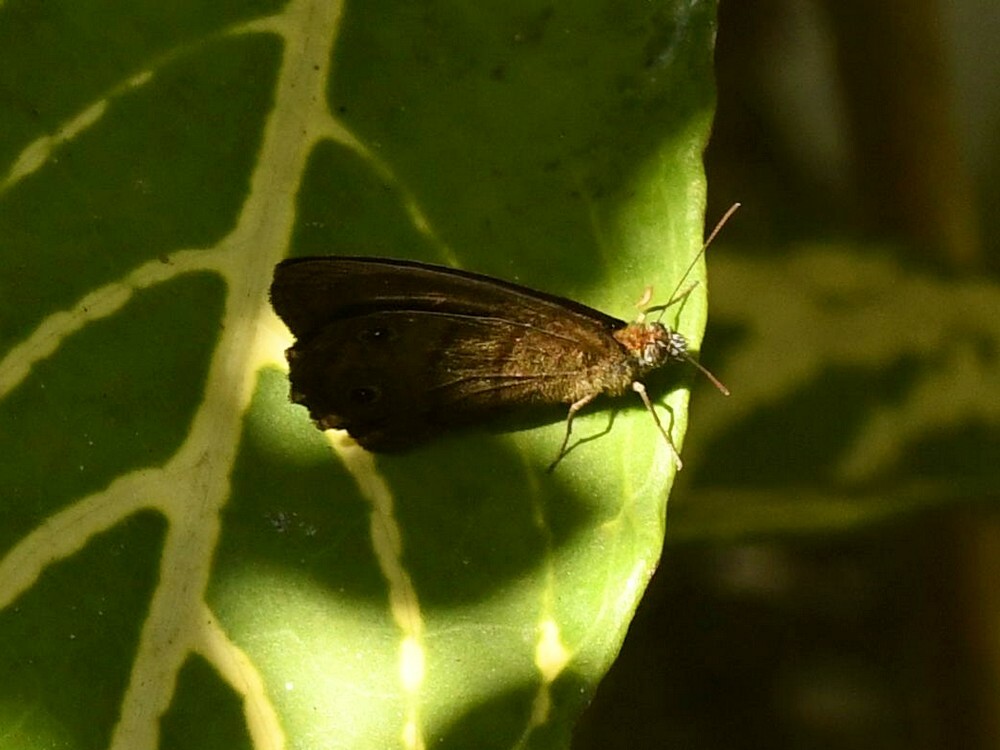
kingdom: Animalia
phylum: Arthropoda
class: Insecta
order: Lepidoptera
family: Nymphalidae
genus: Malaveria
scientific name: Malaveria
